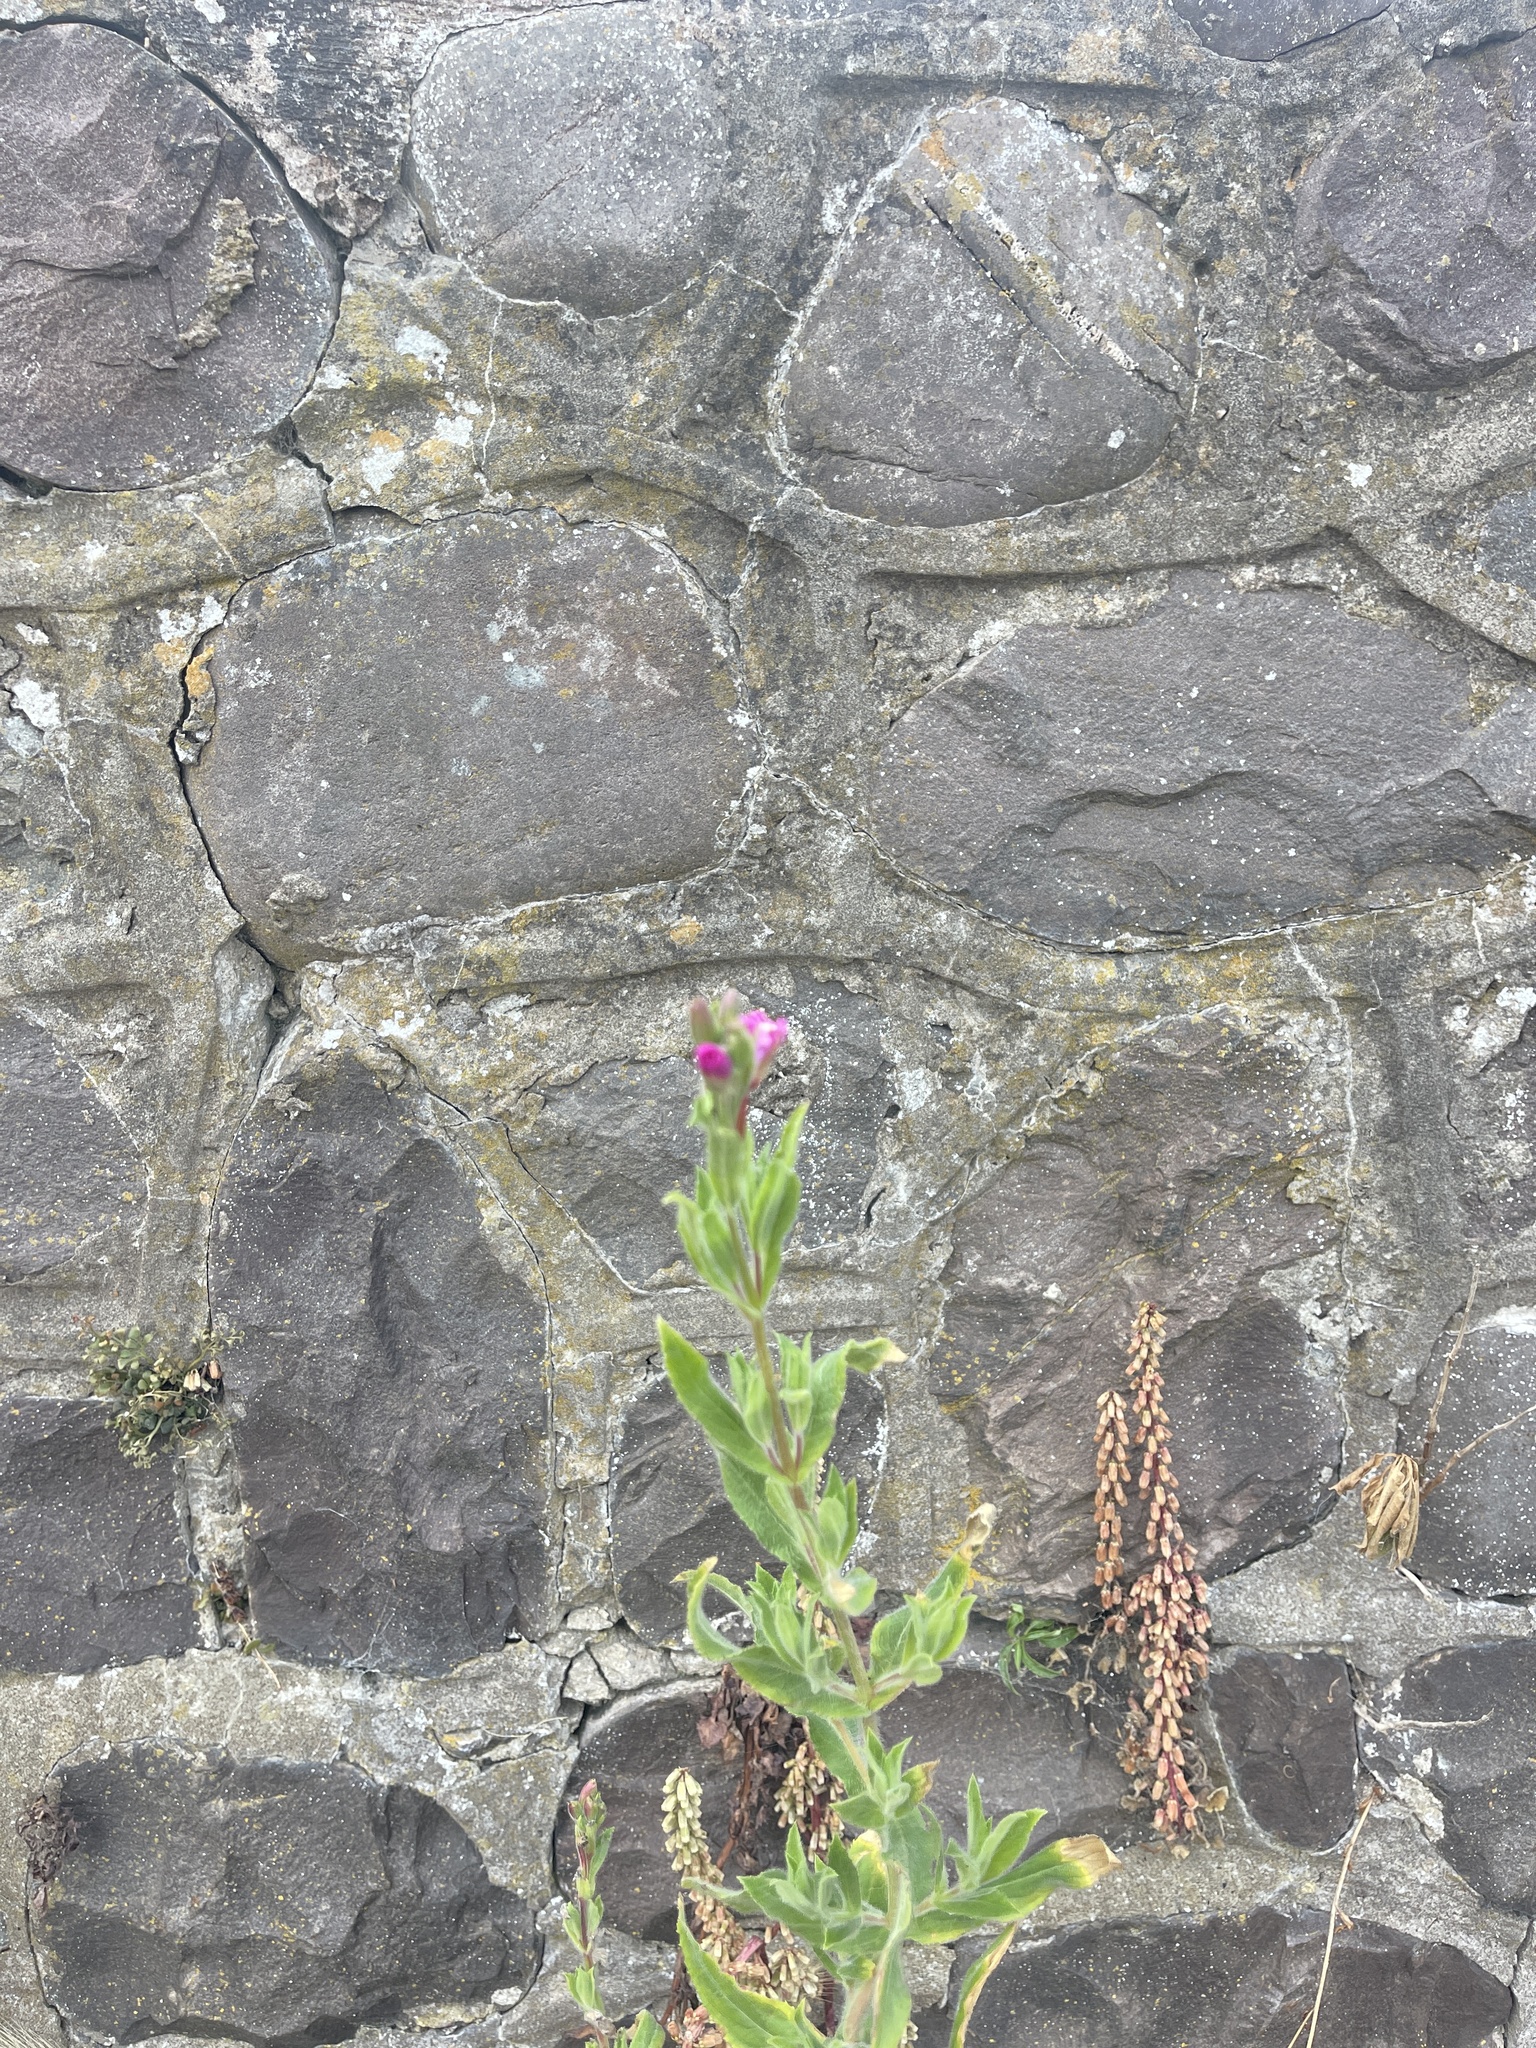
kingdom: Plantae
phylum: Tracheophyta
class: Magnoliopsida
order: Myrtales
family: Onagraceae
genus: Epilobium
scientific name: Epilobium hirsutum
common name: Great willowherb
